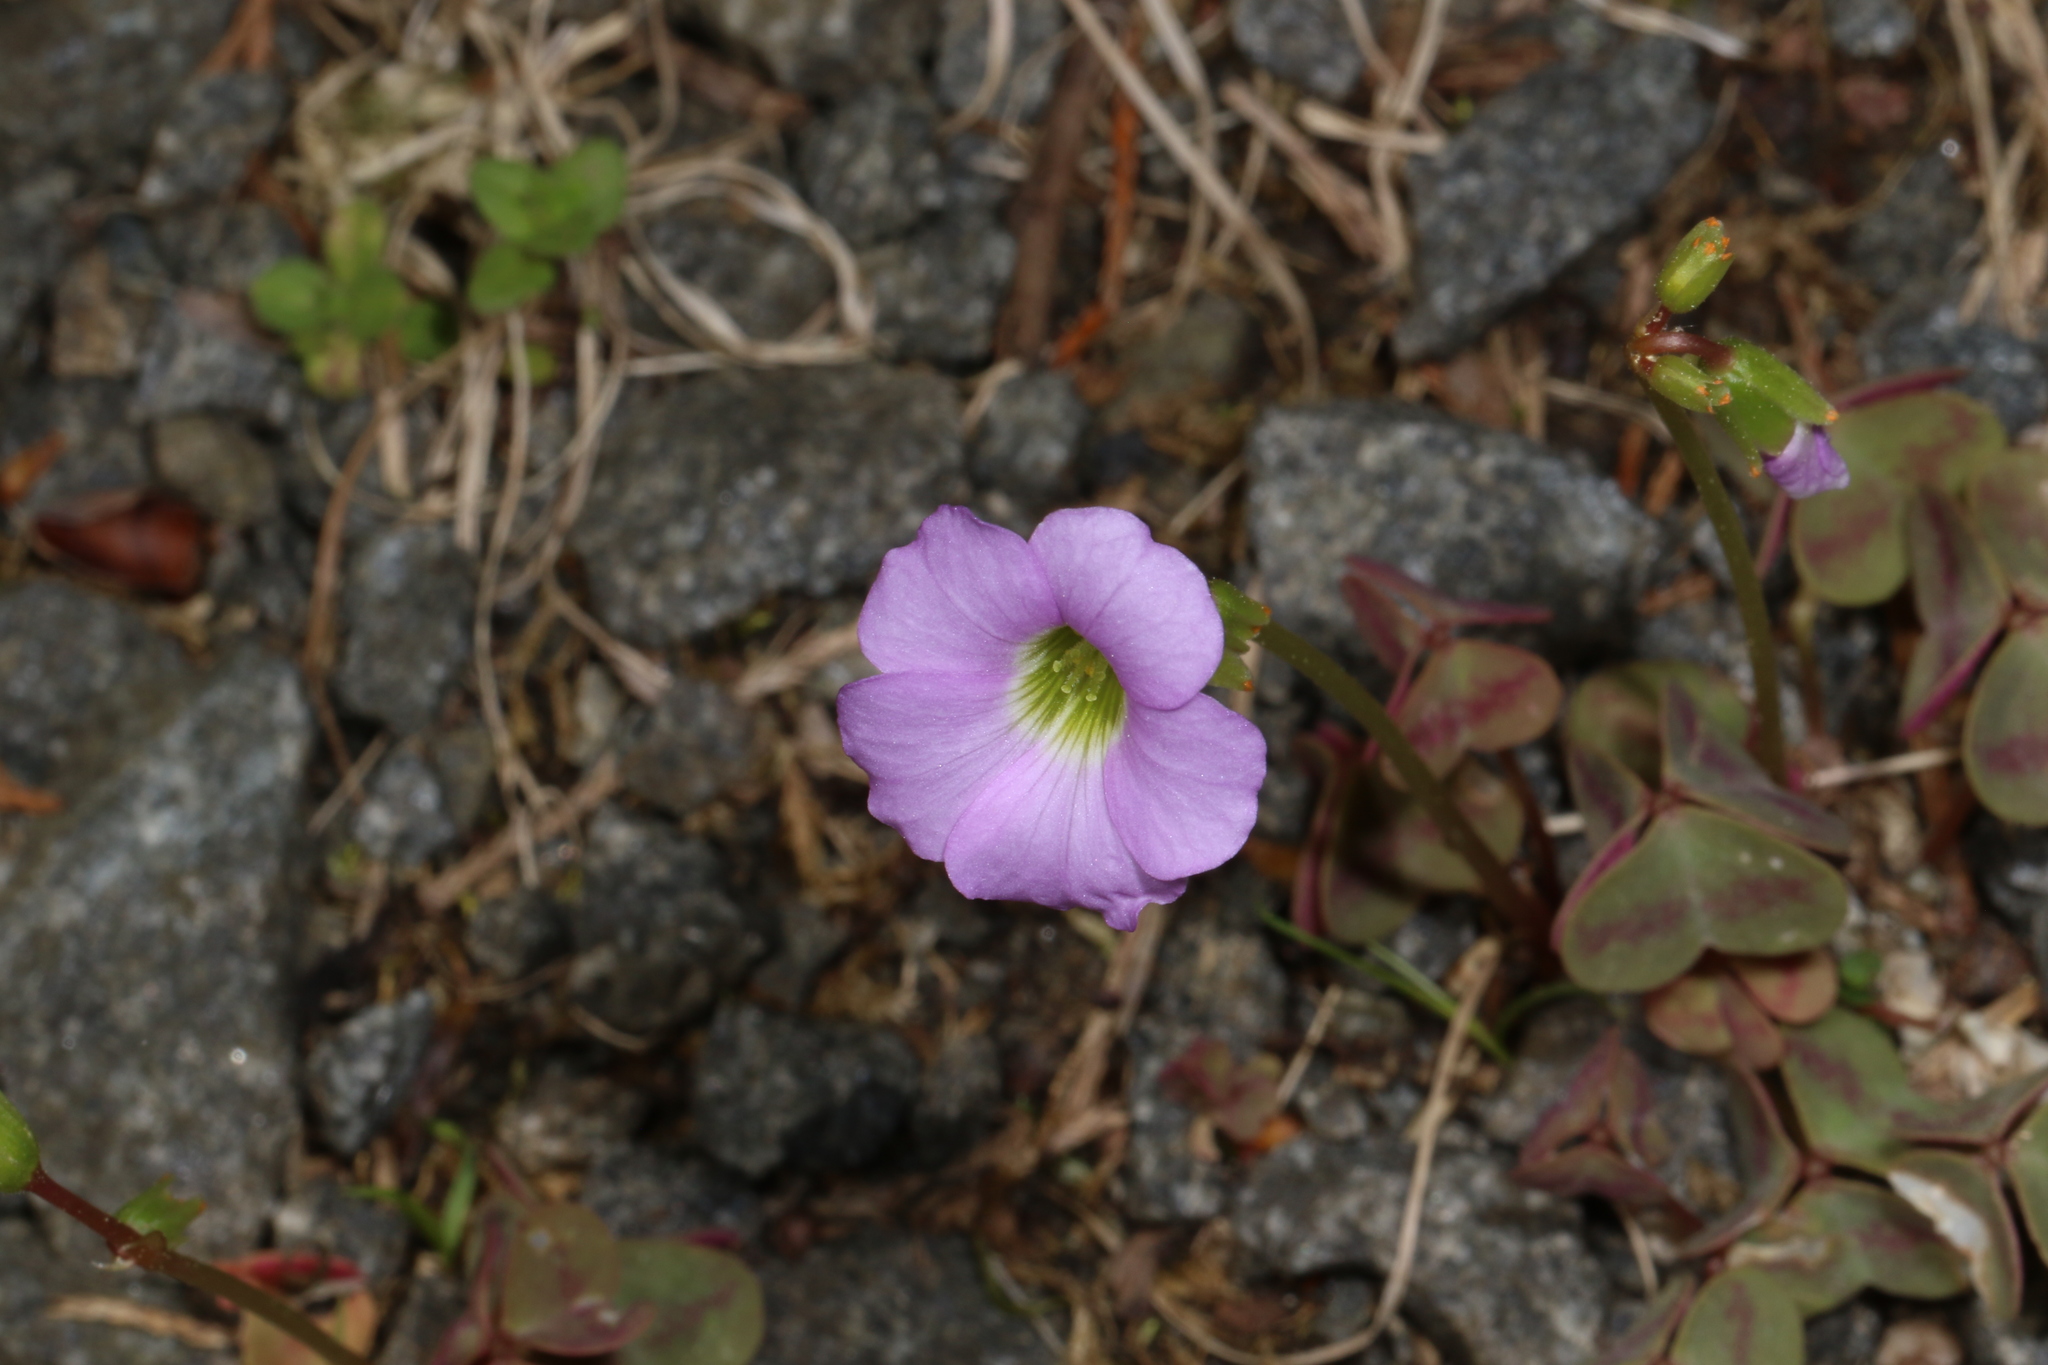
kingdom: Plantae
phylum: Tracheophyta
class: Magnoliopsida
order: Oxalidales
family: Oxalidaceae
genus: Oxalis
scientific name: Oxalis violacea
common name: Violet wood-sorrel
